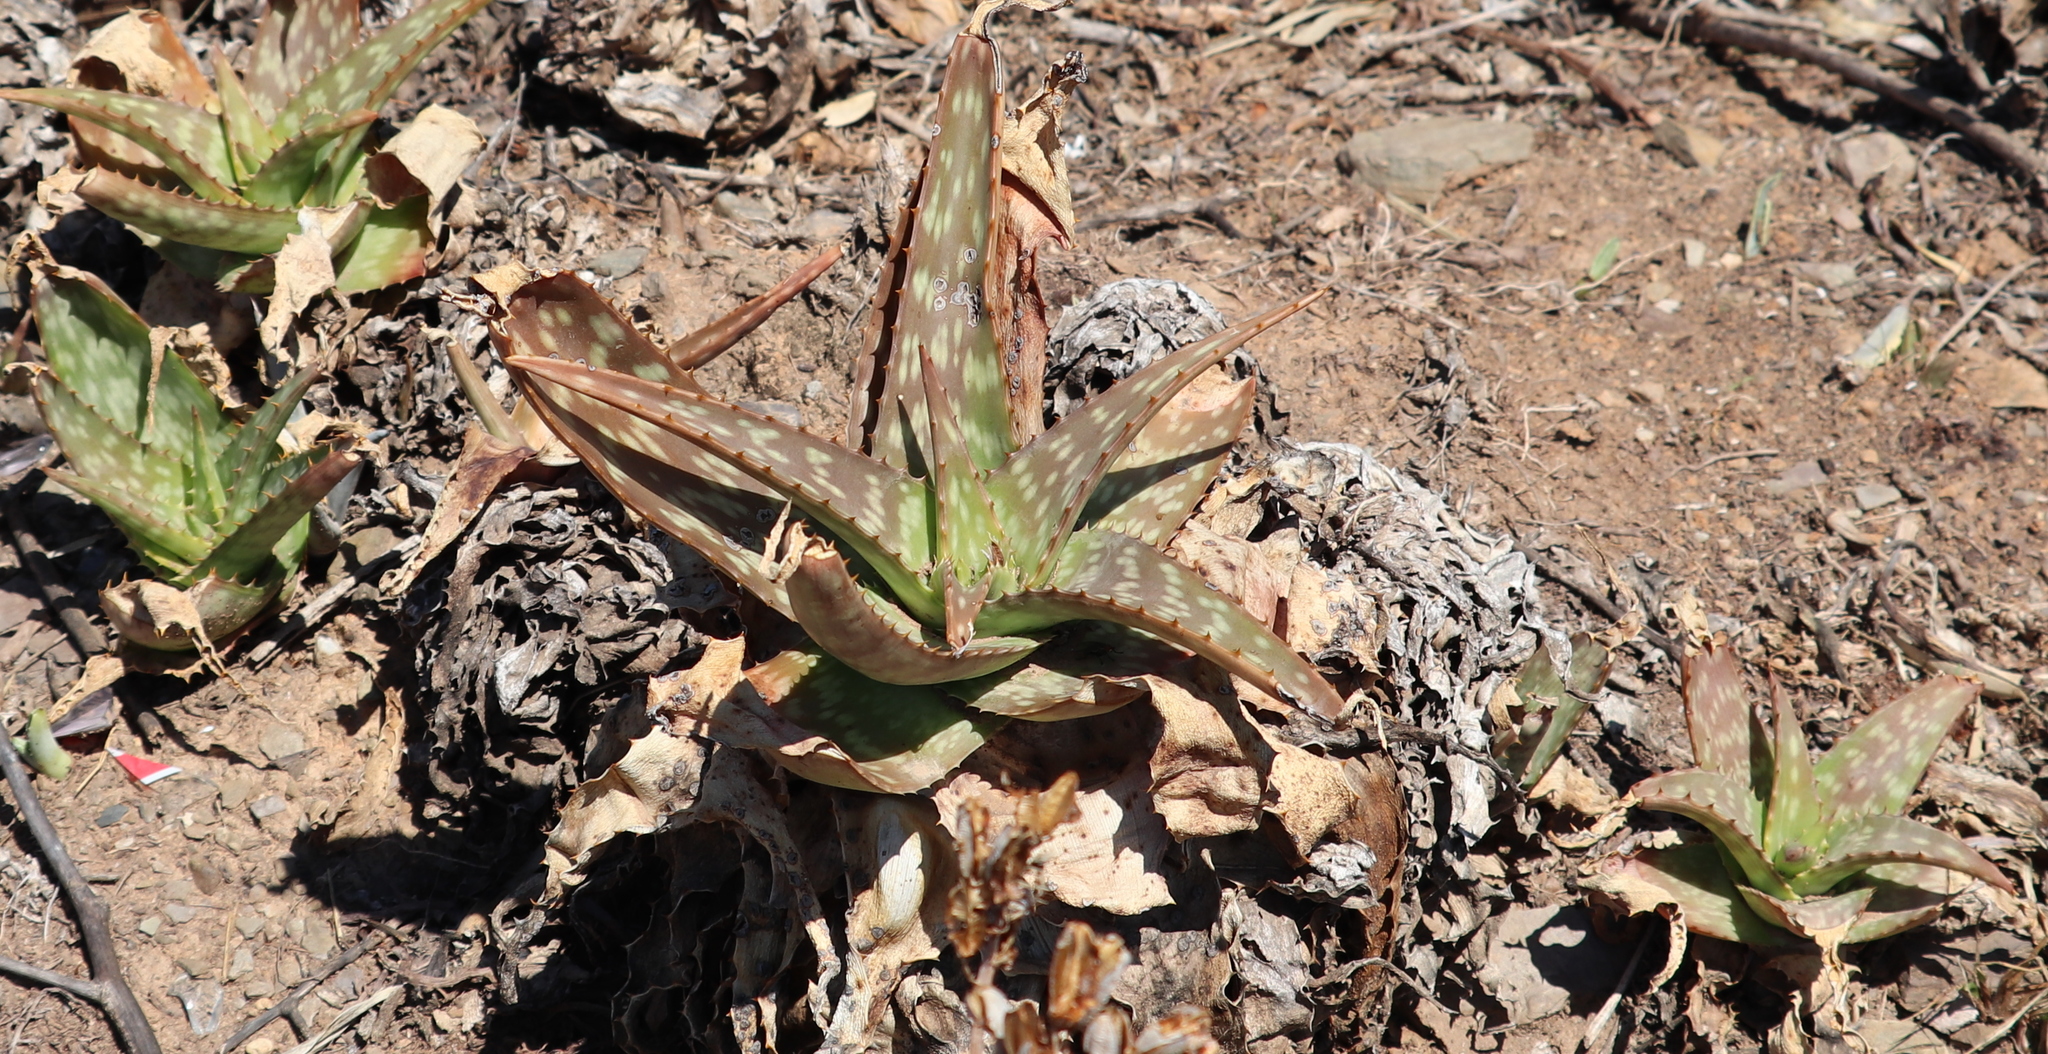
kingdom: Plantae
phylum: Tracheophyta
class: Liliopsida
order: Asparagales
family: Asphodelaceae
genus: Aloe
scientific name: Aloe maculata
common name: Broadleaf aloe
